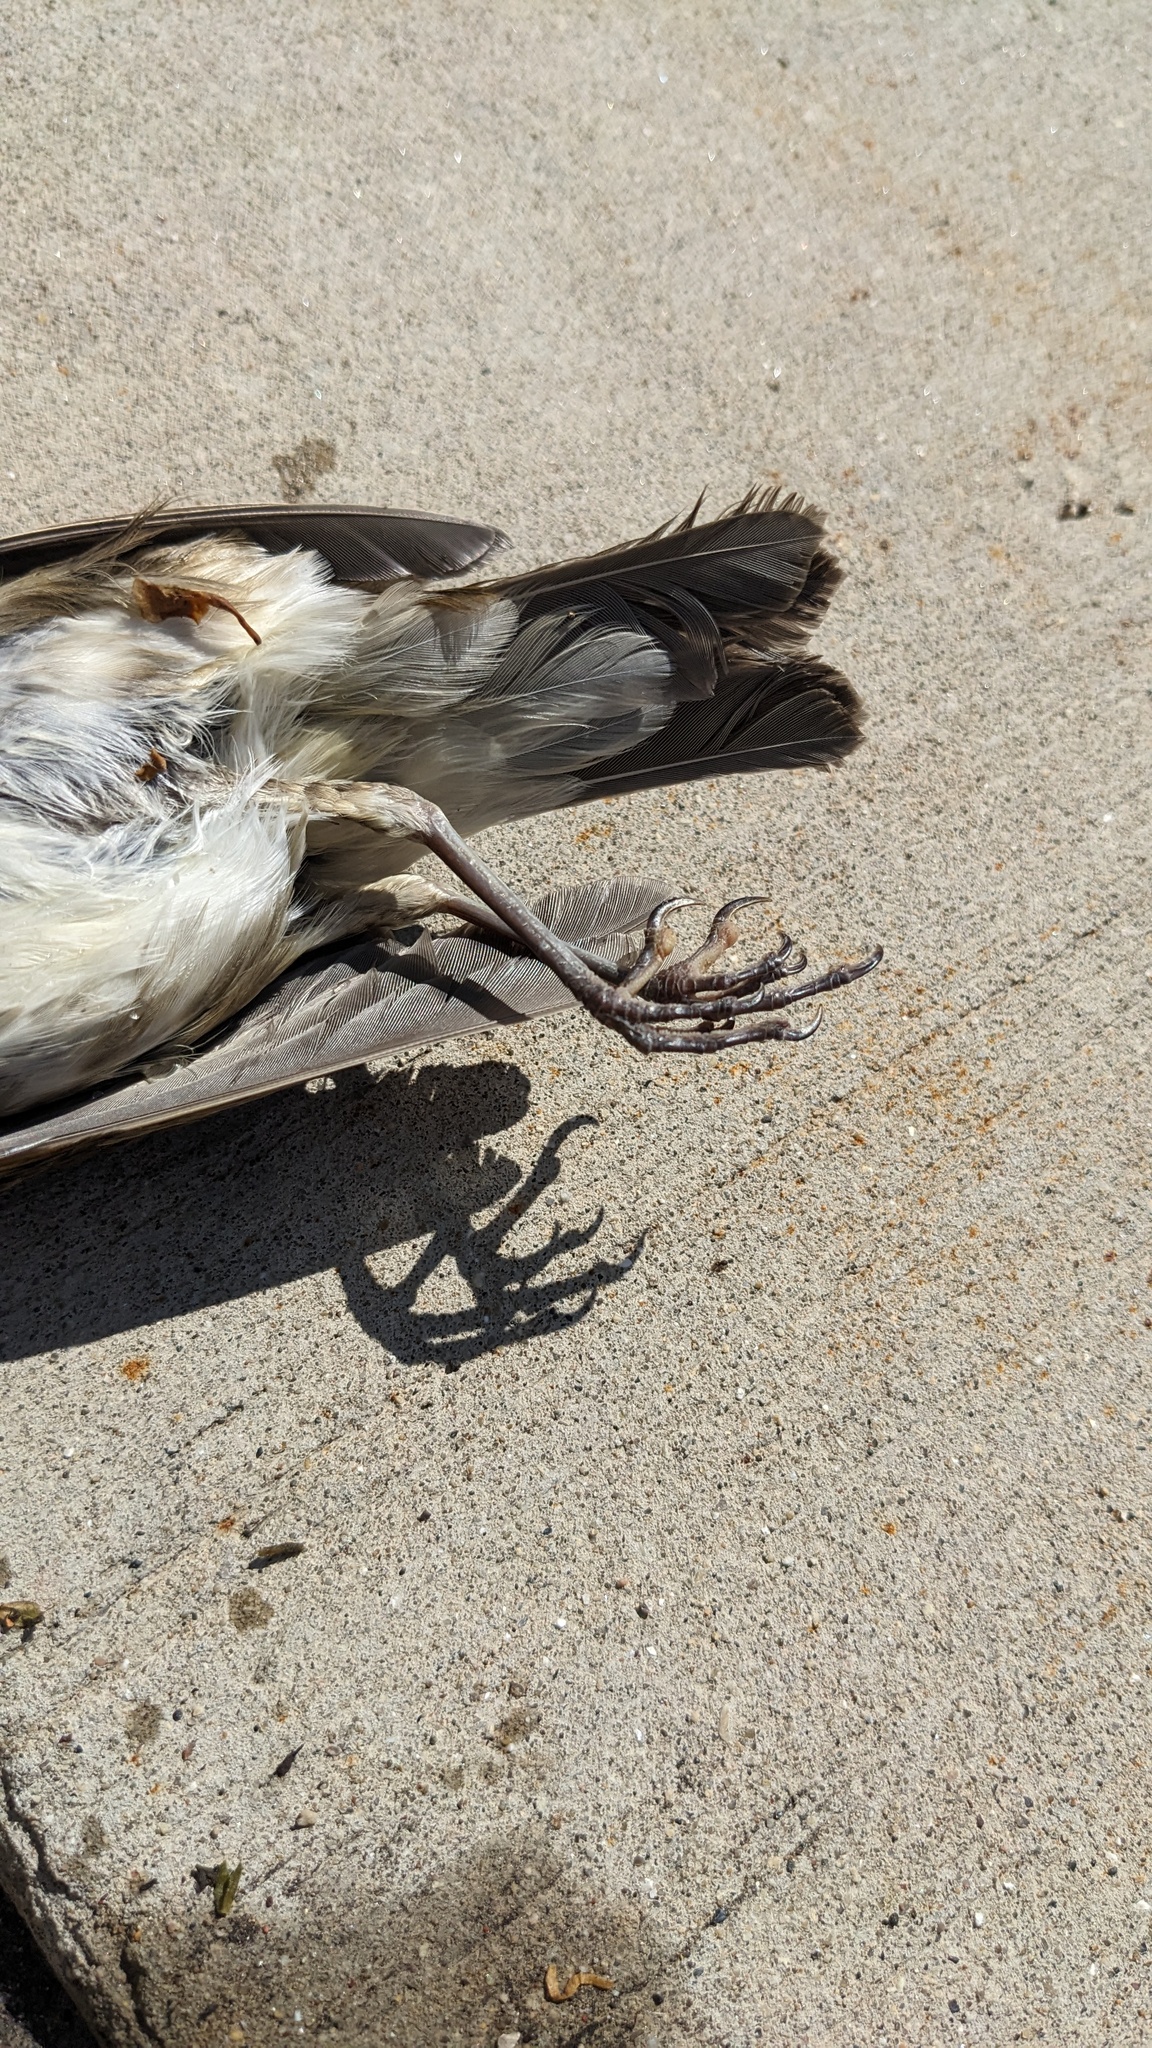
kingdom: Animalia
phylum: Chordata
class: Aves
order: Passeriformes
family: Turdidae
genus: Catharus
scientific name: Catharus ustulatus
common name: Swainson's thrush
